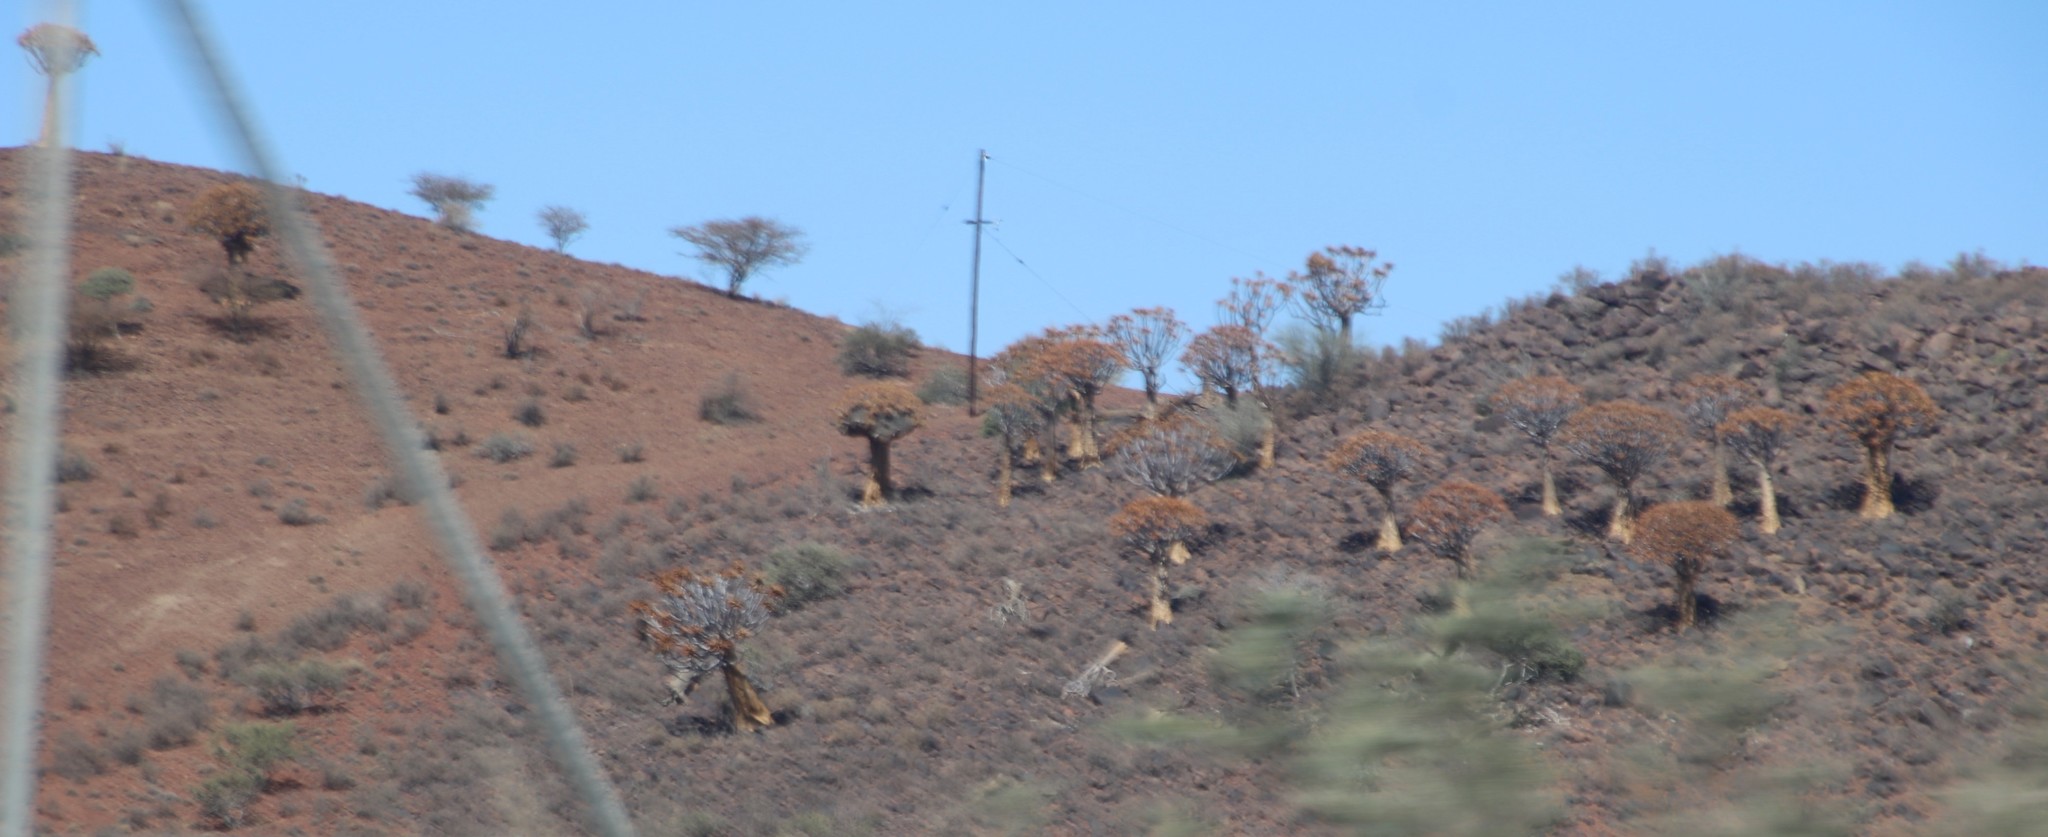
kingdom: Plantae
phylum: Tracheophyta
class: Liliopsida
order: Asparagales
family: Asphodelaceae
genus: Aloidendron
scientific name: Aloidendron dichotomum
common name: Quiver tree
